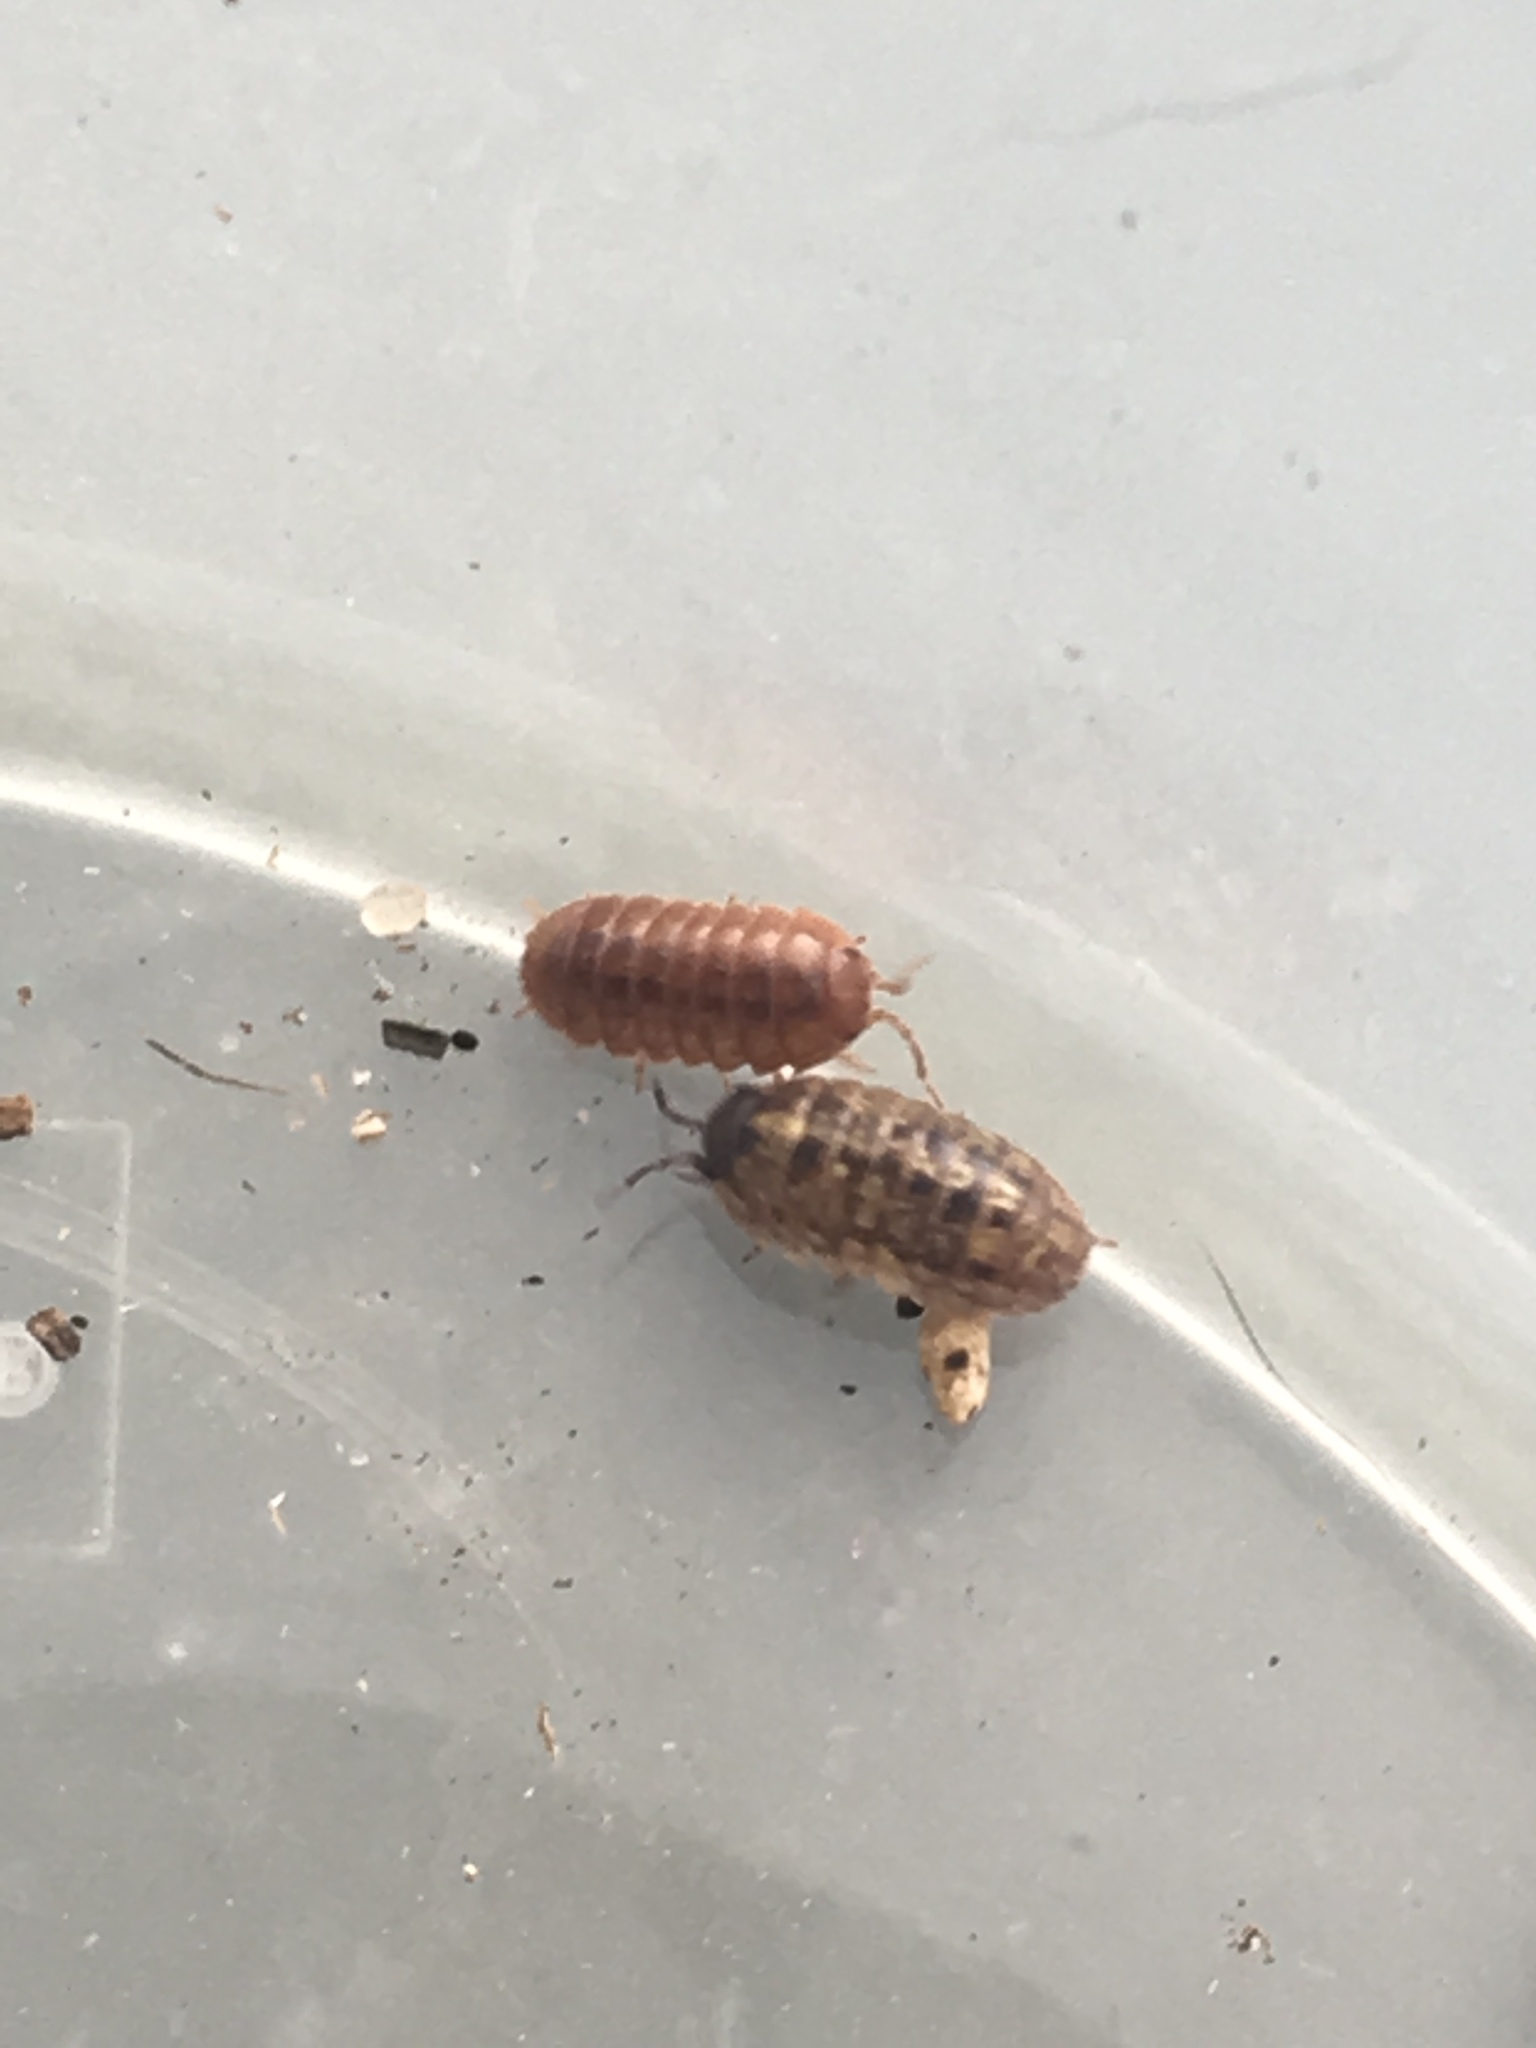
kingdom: Animalia
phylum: Arthropoda
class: Malacostraca
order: Isopoda
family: Armadillidiidae
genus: Armadillidium
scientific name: Armadillidium vulgare
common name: Common pill woodlouse
